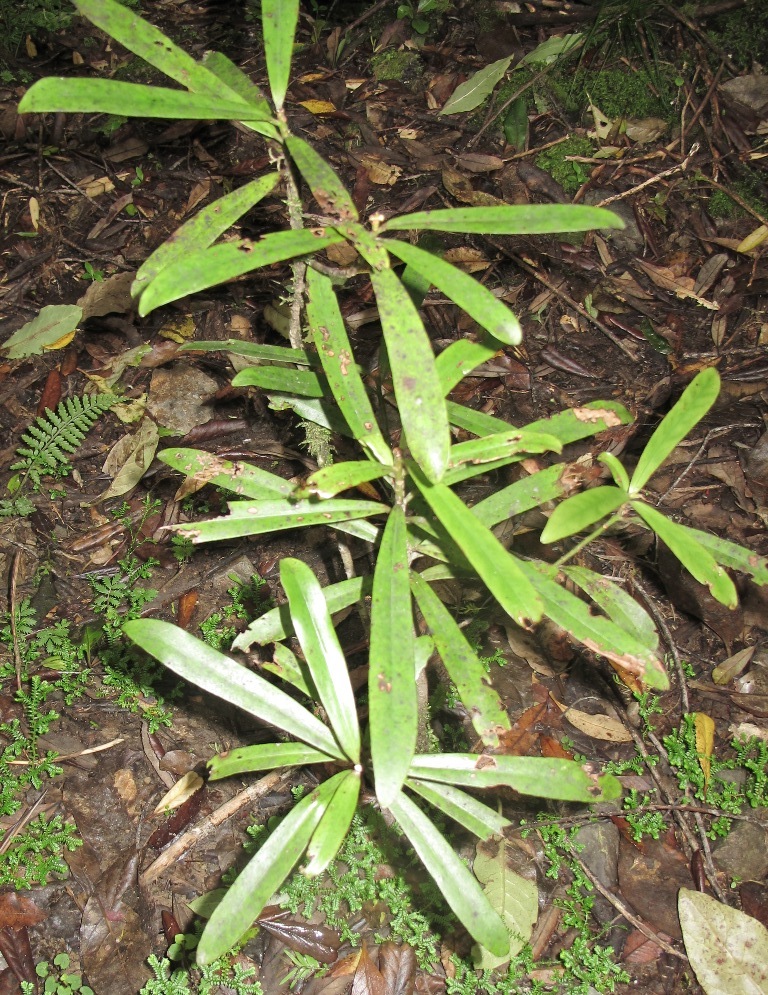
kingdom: Plantae
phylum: Tracheophyta
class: Magnoliopsida
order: Ericales
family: Primulaceae
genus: Myrsine
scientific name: Myrsine salicina
